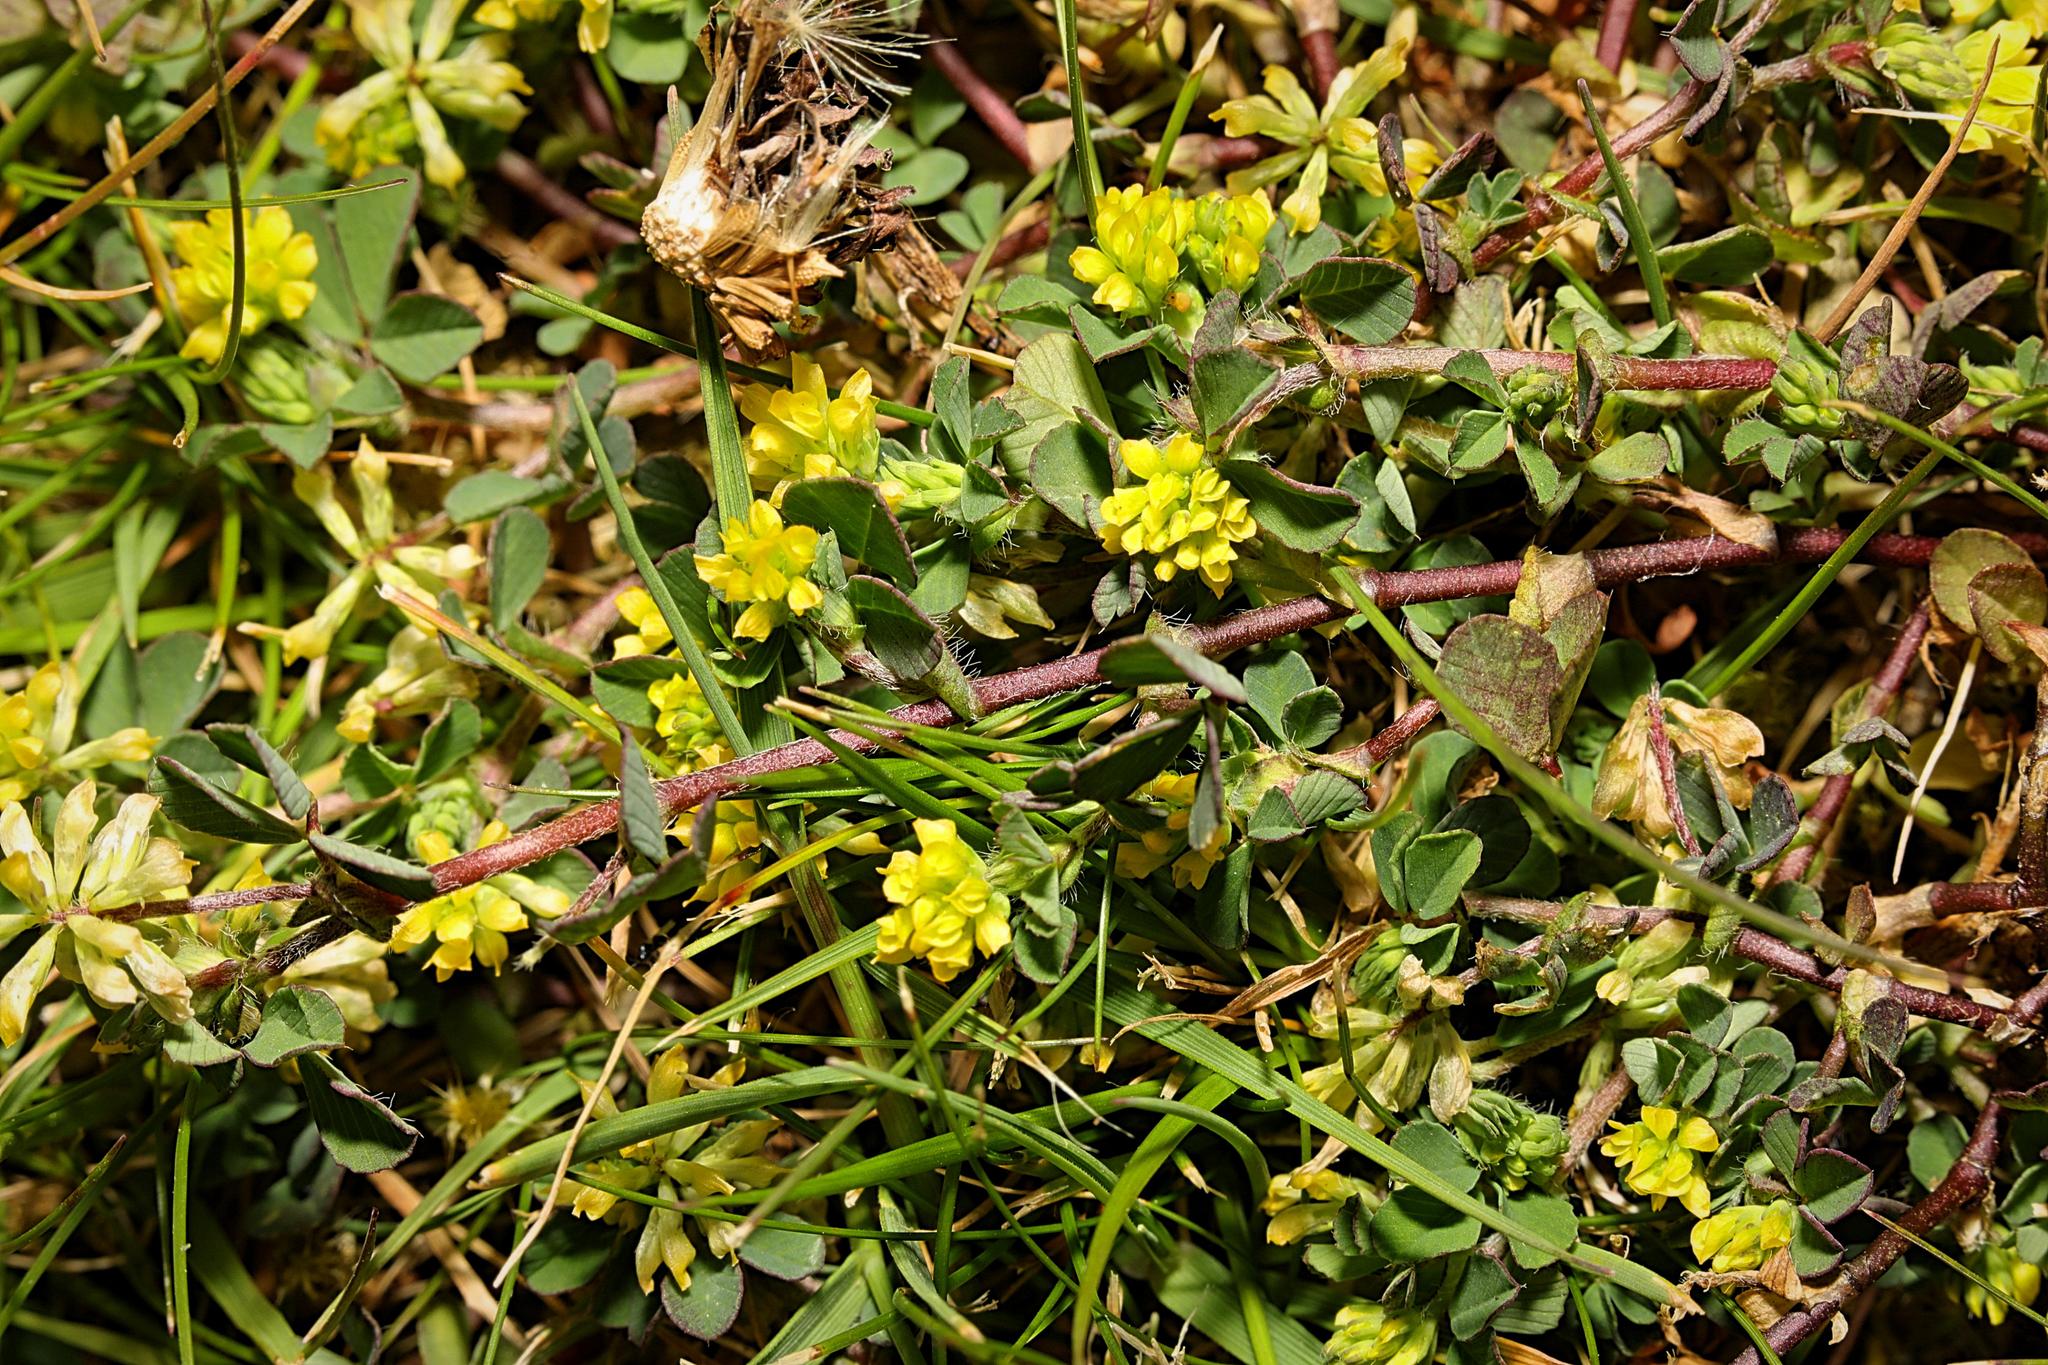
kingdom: Plantae
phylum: Tracheophyta
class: Magnoliopsida
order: Fabales
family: Fabaceae
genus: Trifolium
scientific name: Trifolium dubium
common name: Suckling clover
